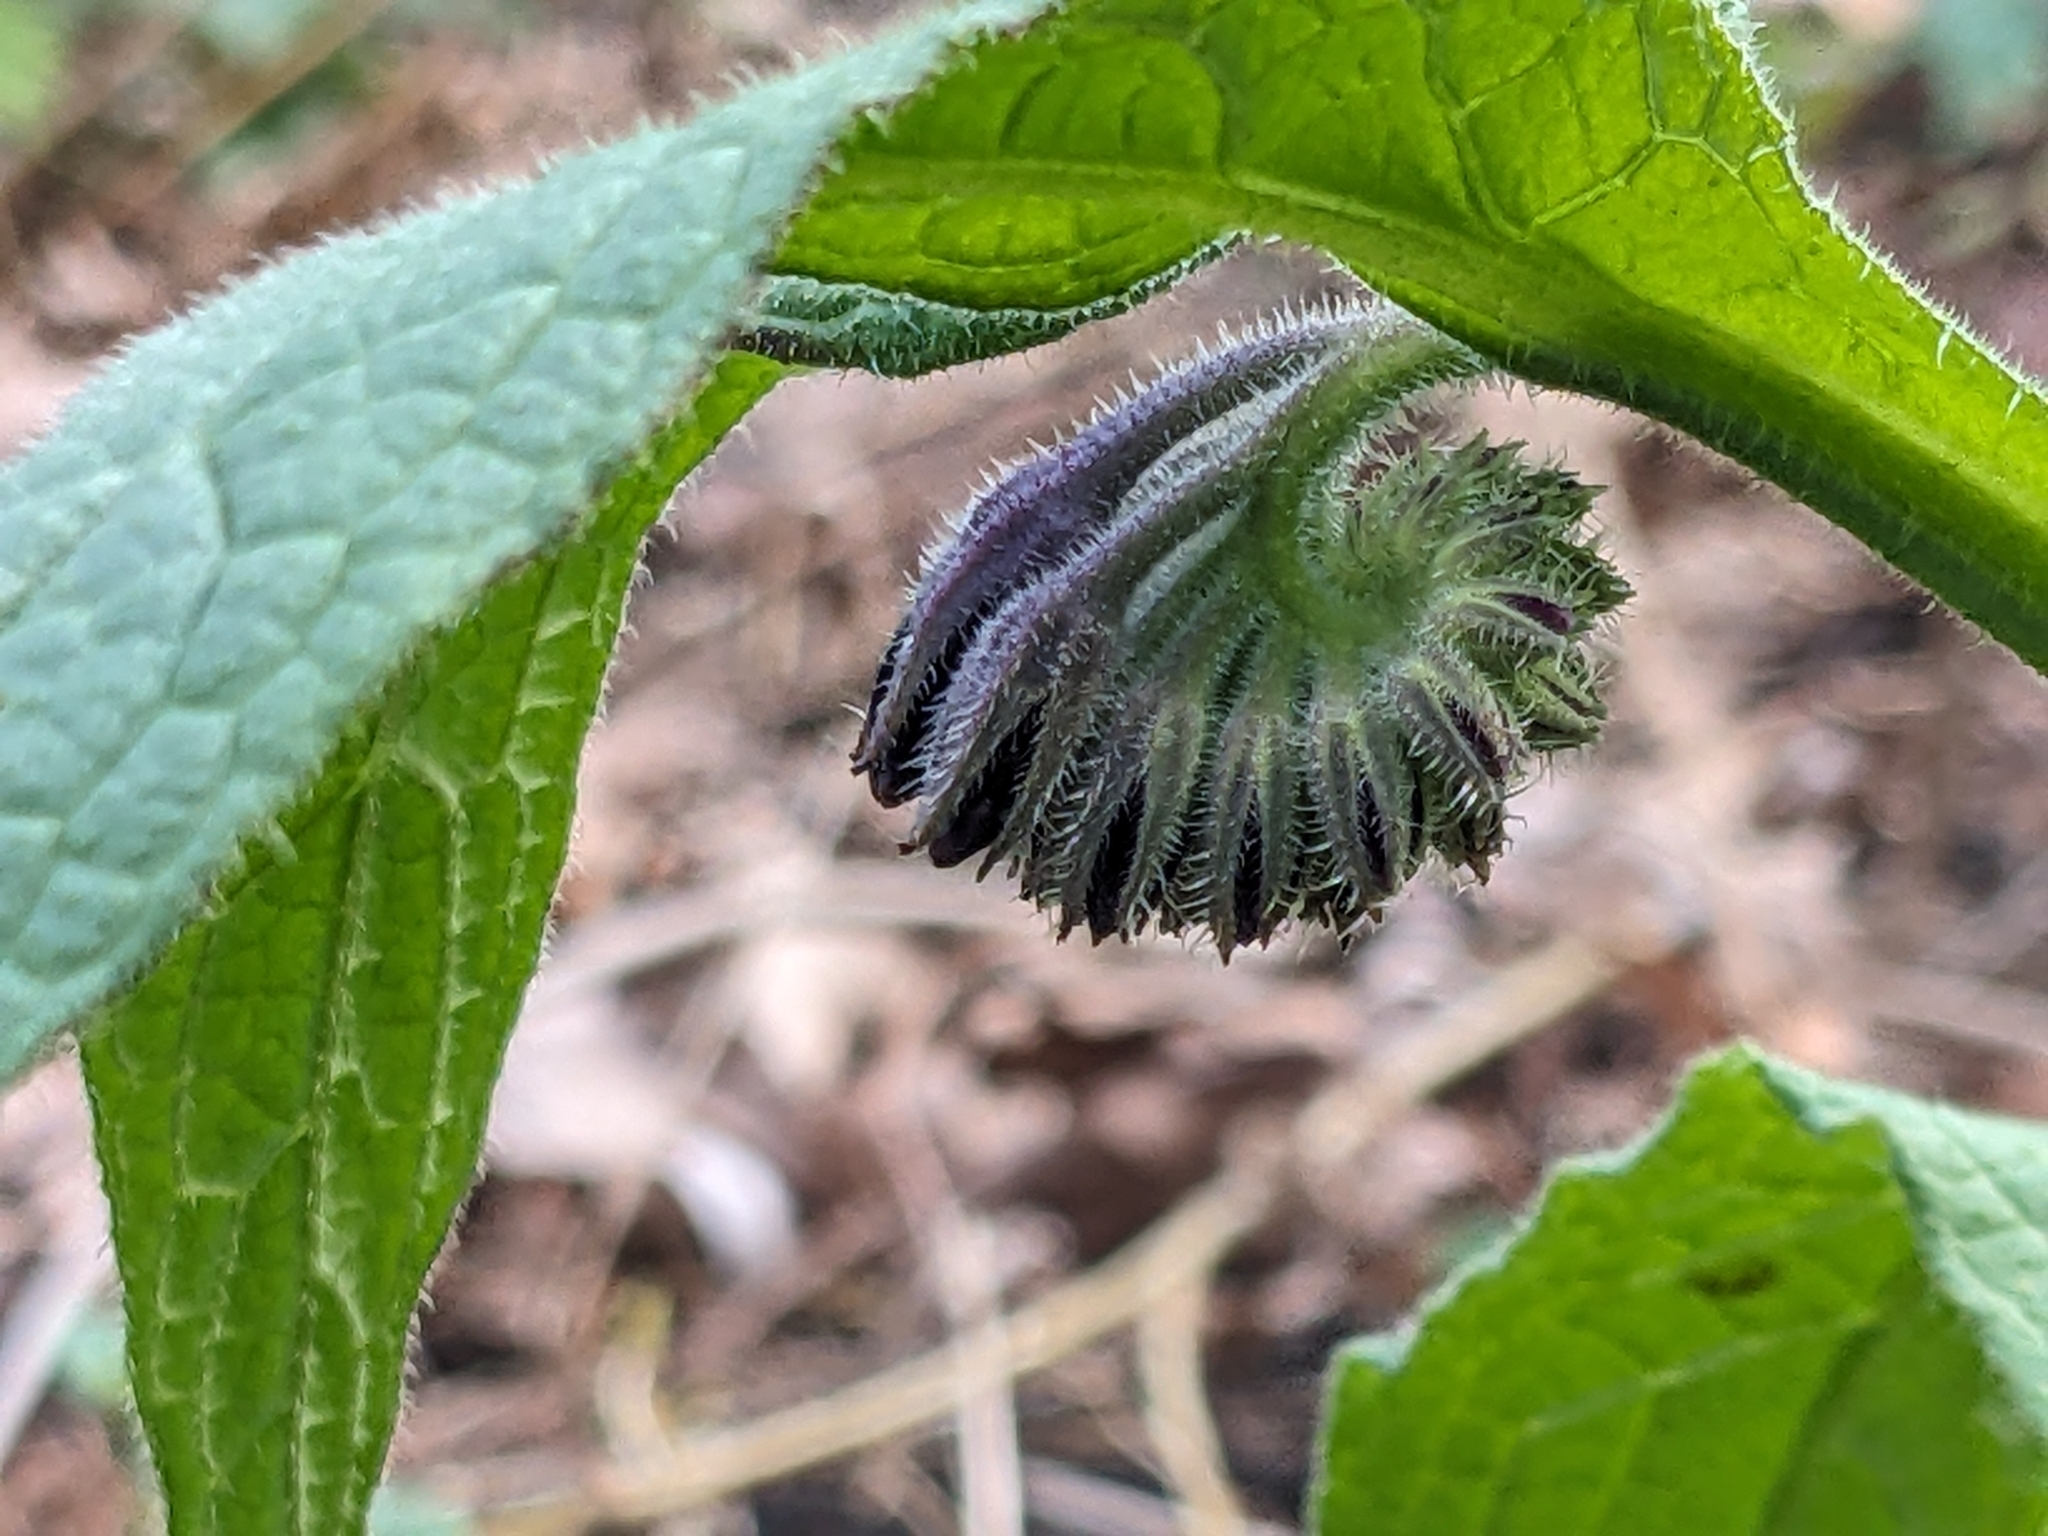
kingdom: Plantae
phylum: Tracheophyta
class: Magnoliopsida
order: Boraginales
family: Boraginaceae
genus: Symphytum
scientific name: Symphytum officinale
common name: Common comfrey
